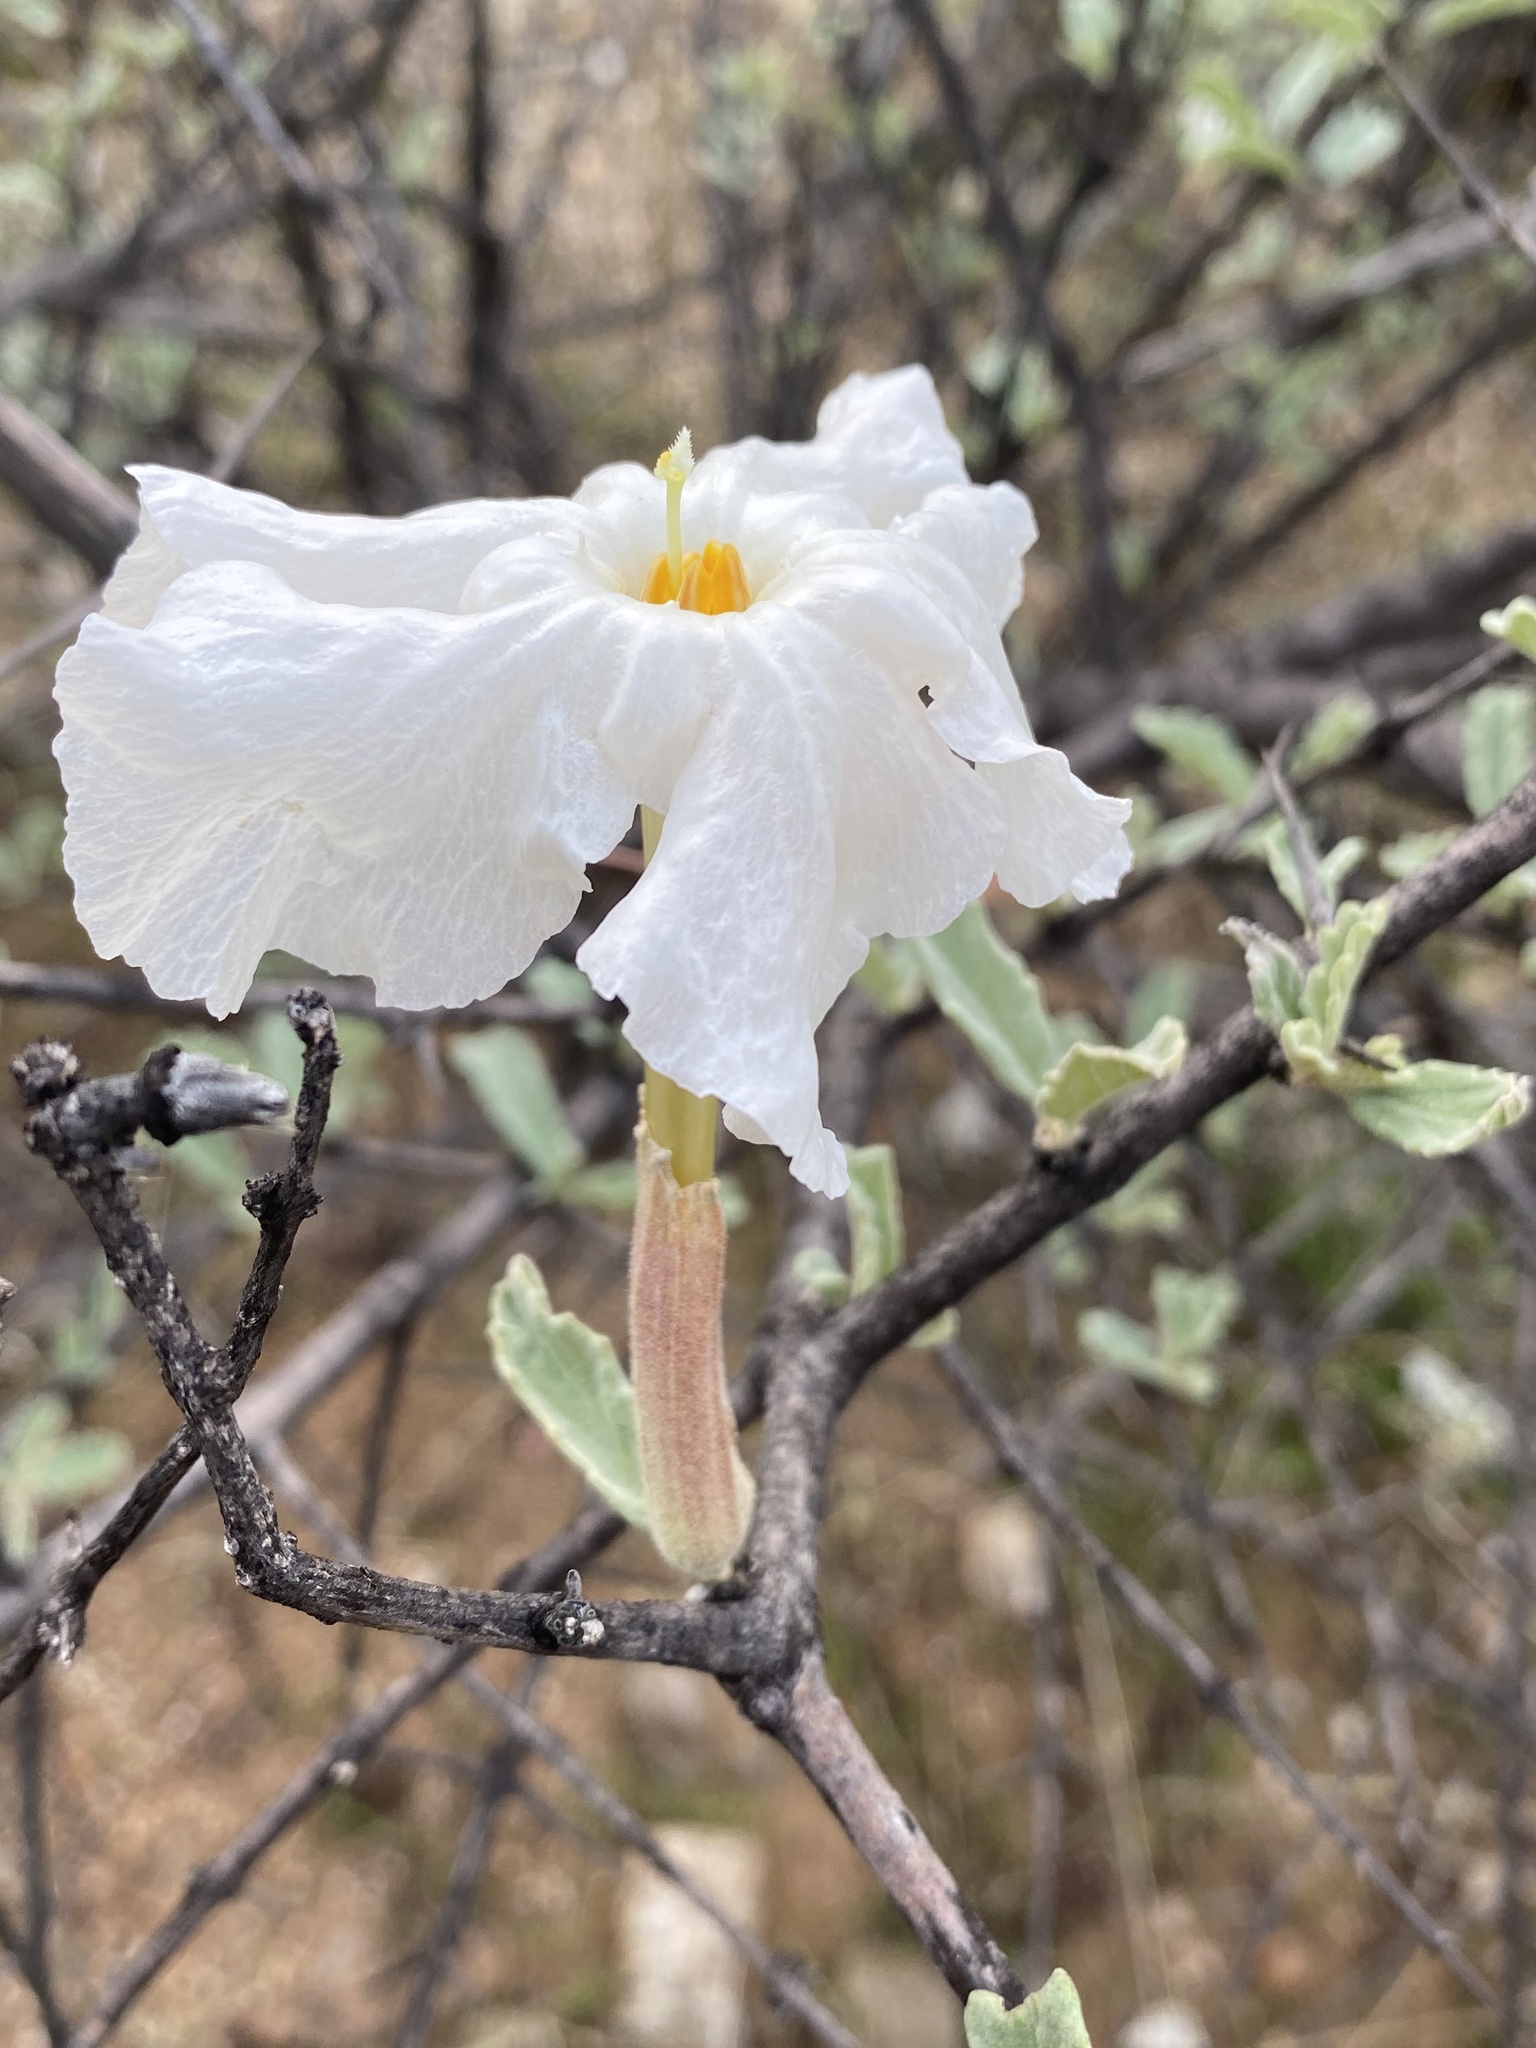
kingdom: Plantae
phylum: Tracheophyta
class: Magnoliopsida
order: Lamiales
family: Bignoniaceae
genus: Catophractes
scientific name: Catophractes alexandri
